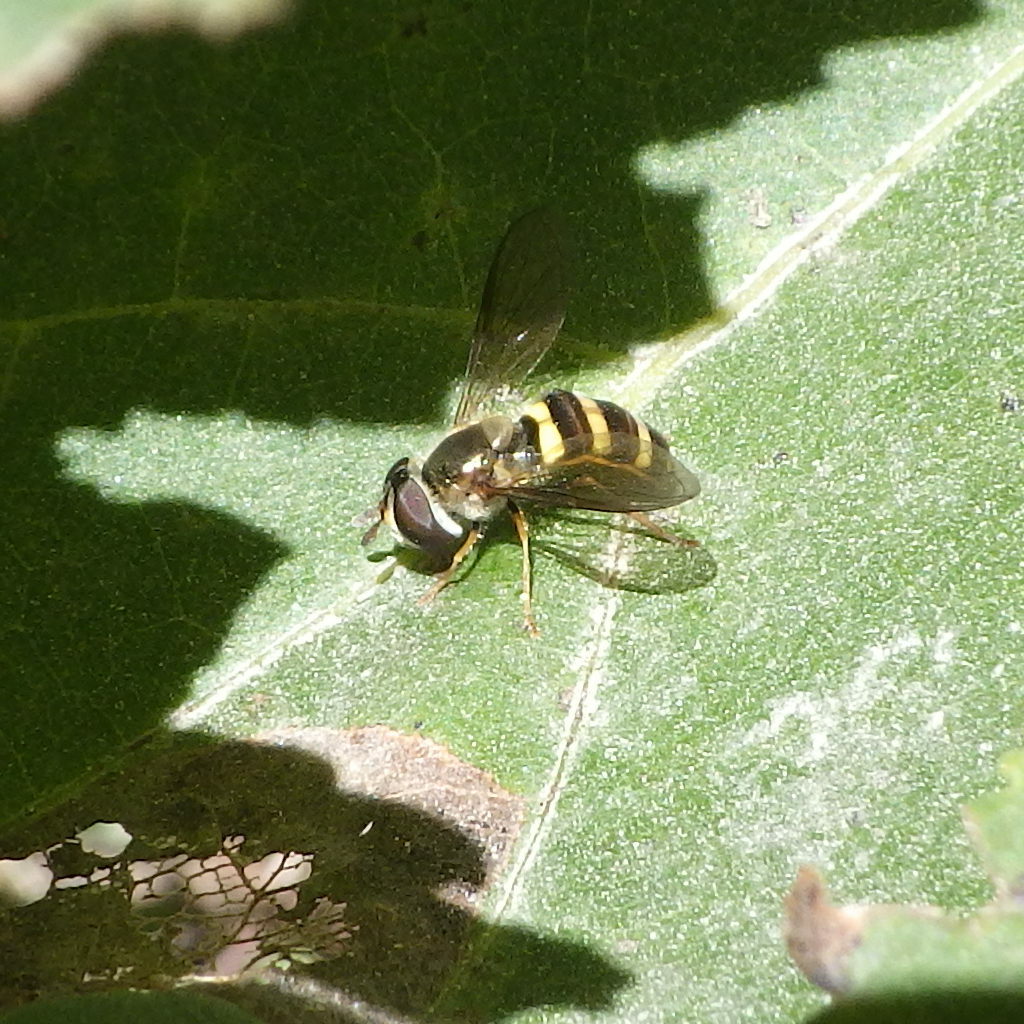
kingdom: Animalia
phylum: Arthropoda
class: Insecta
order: Diptera
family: Syrphidae
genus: Eupeodes
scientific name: Eupeodes
